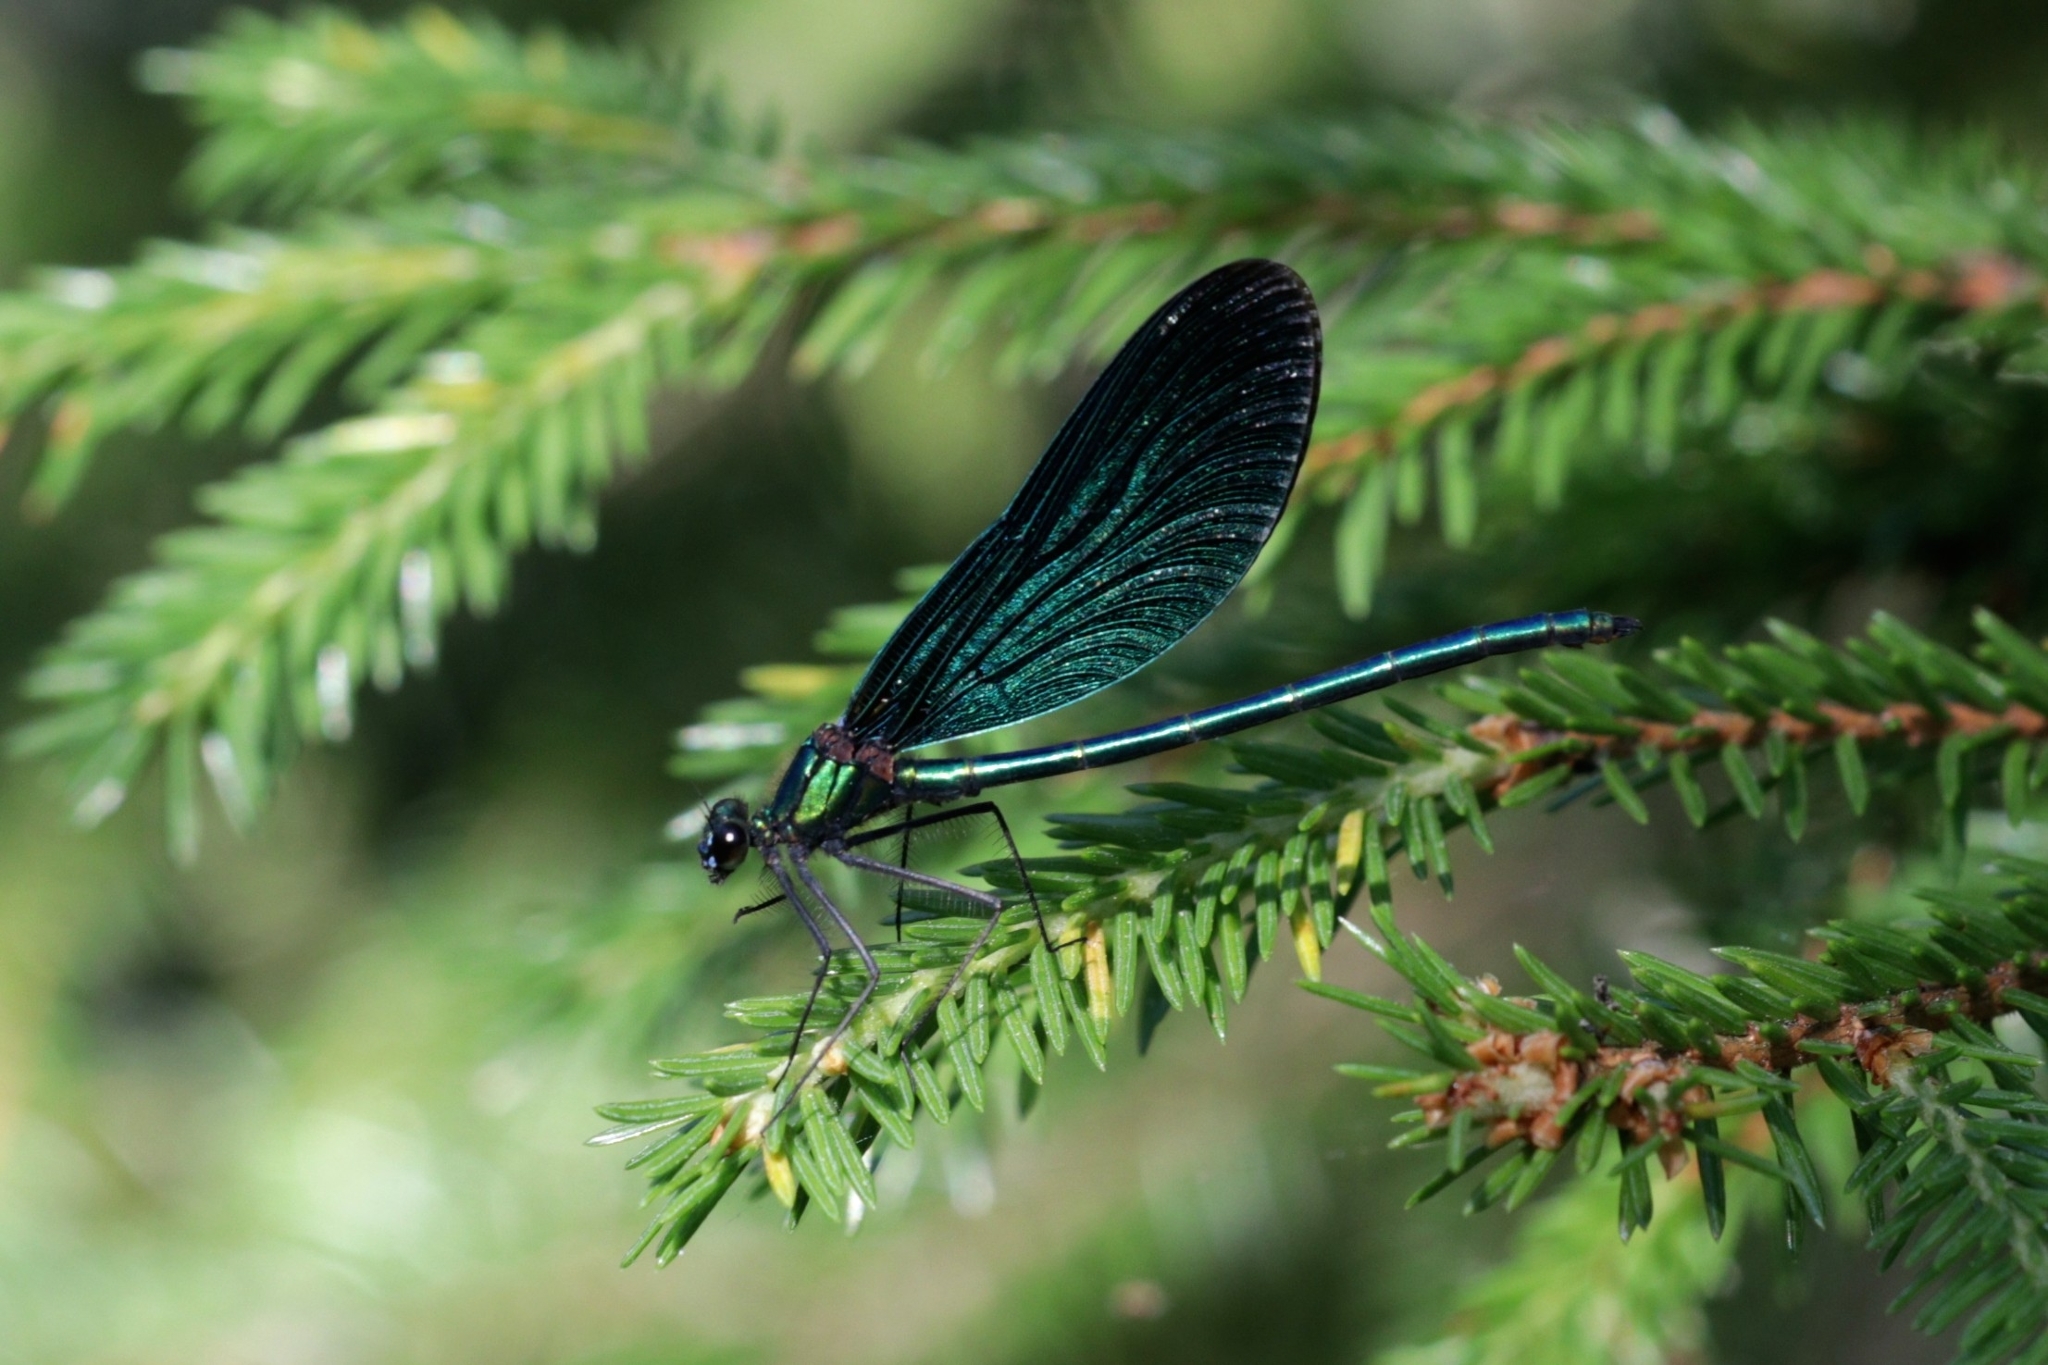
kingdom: Animalia
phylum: Arthropoda
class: Insecta
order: Odonata
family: Calopterygidae
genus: Calopteryx
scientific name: Calopteryx virgo
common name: Beautiful demoiselle
